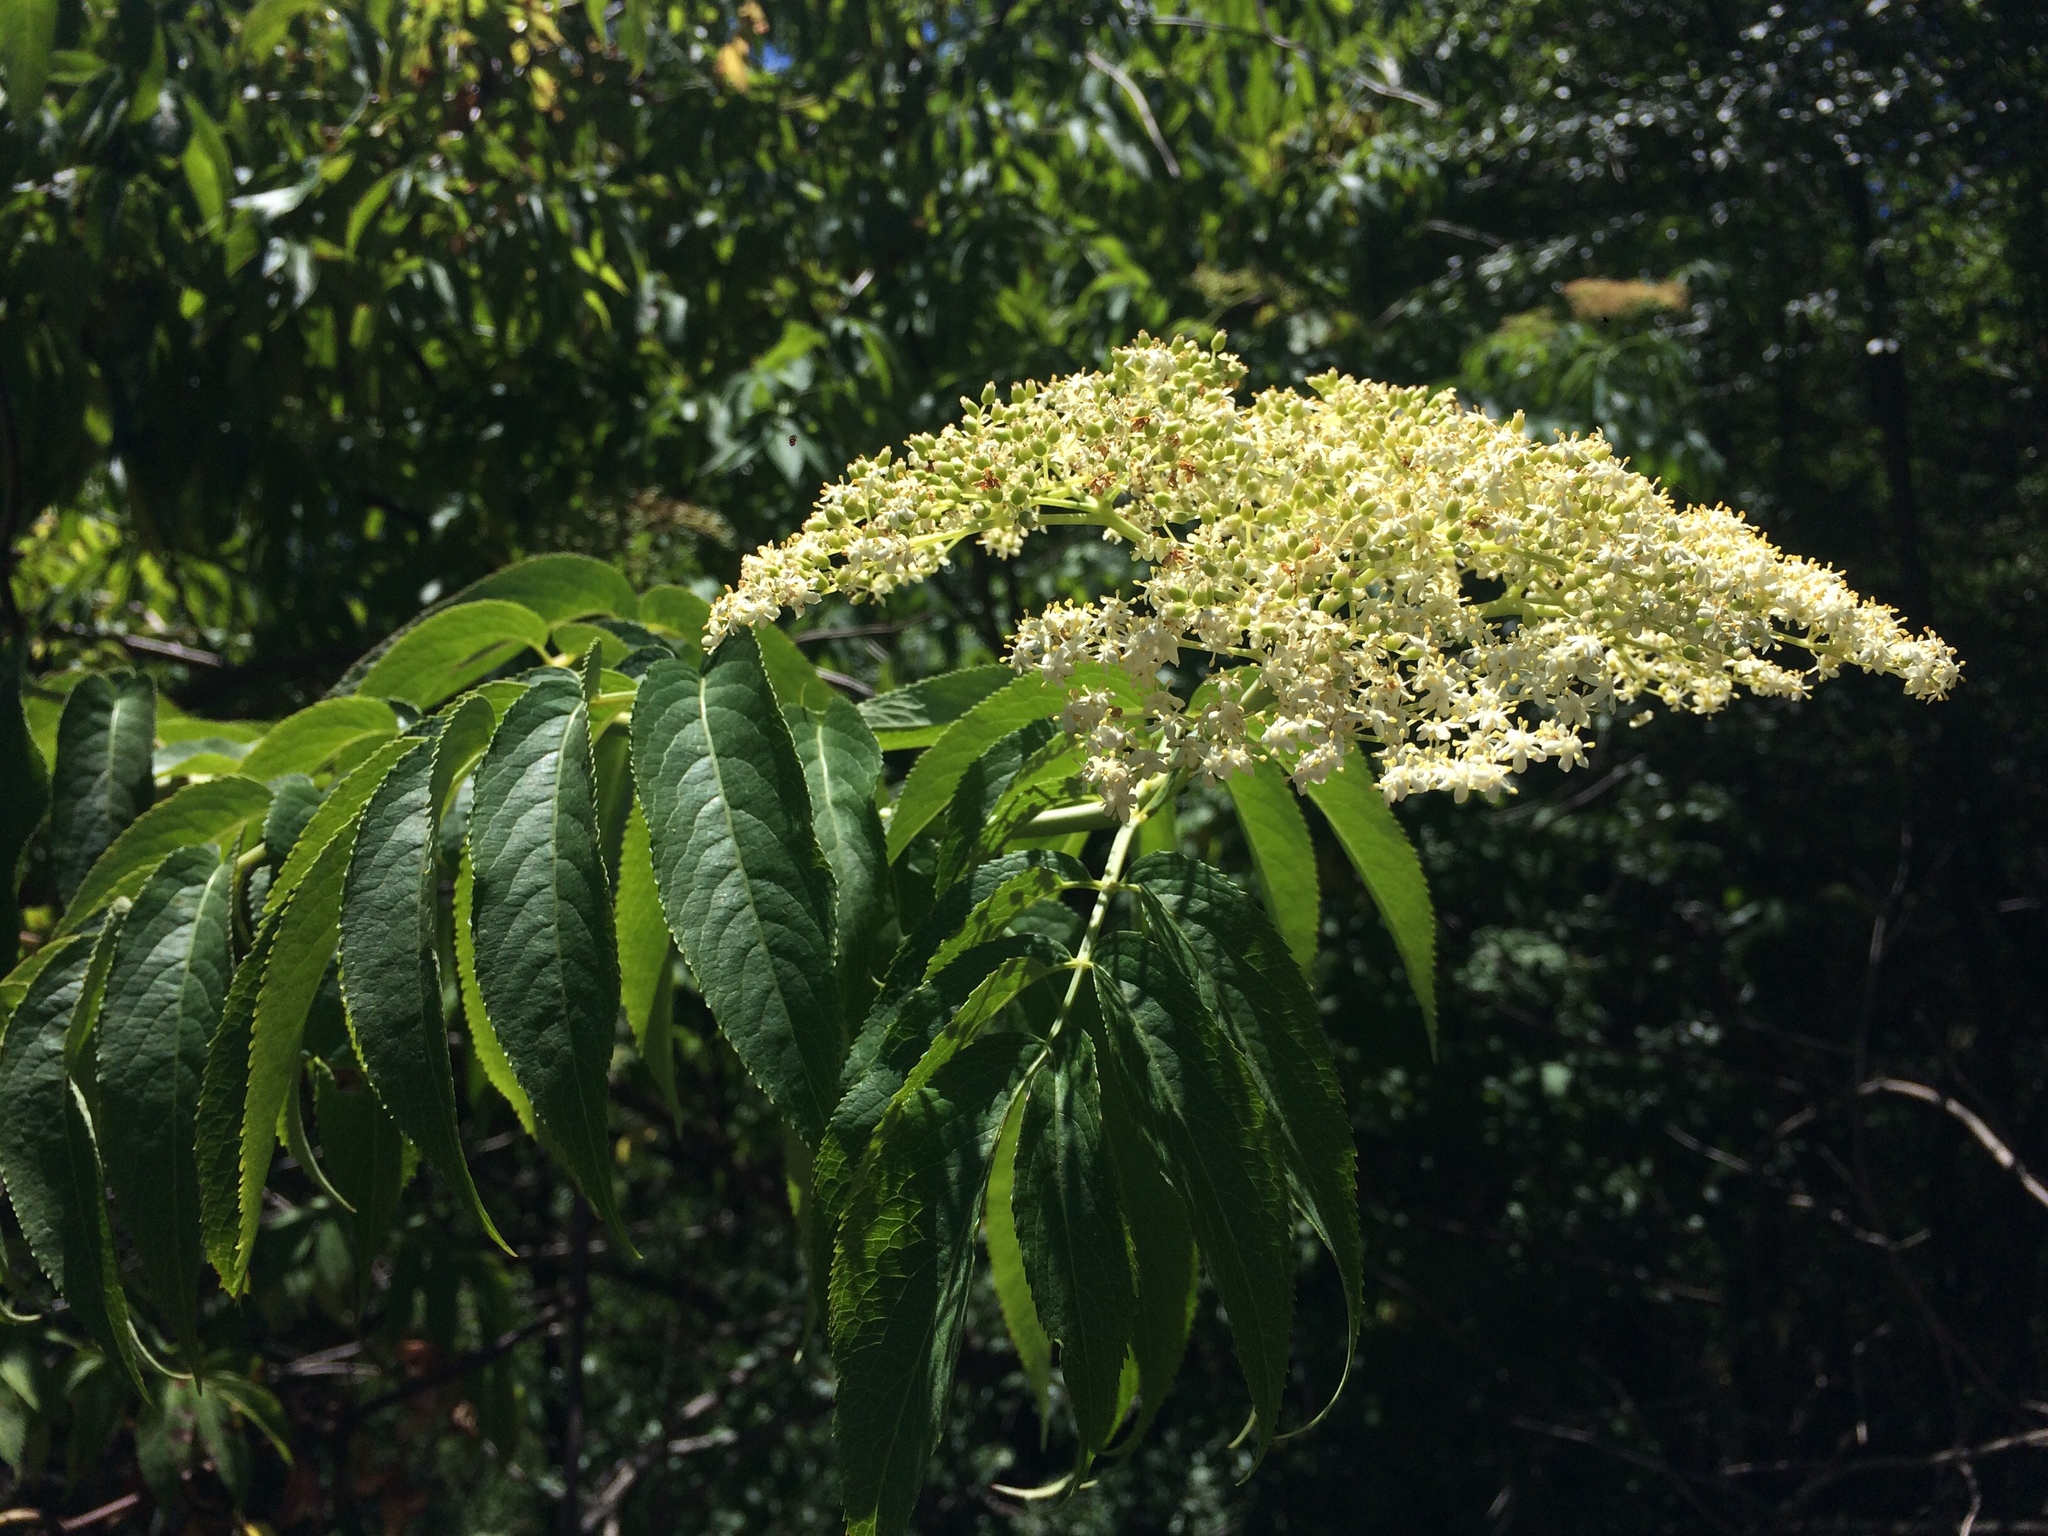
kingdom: Plantae
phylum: Tracheophyta
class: Magnoliopsida
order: Dipsacales
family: Viburnaceae
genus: Sambucus
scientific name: Sambucus cerulea
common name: Blue elder
